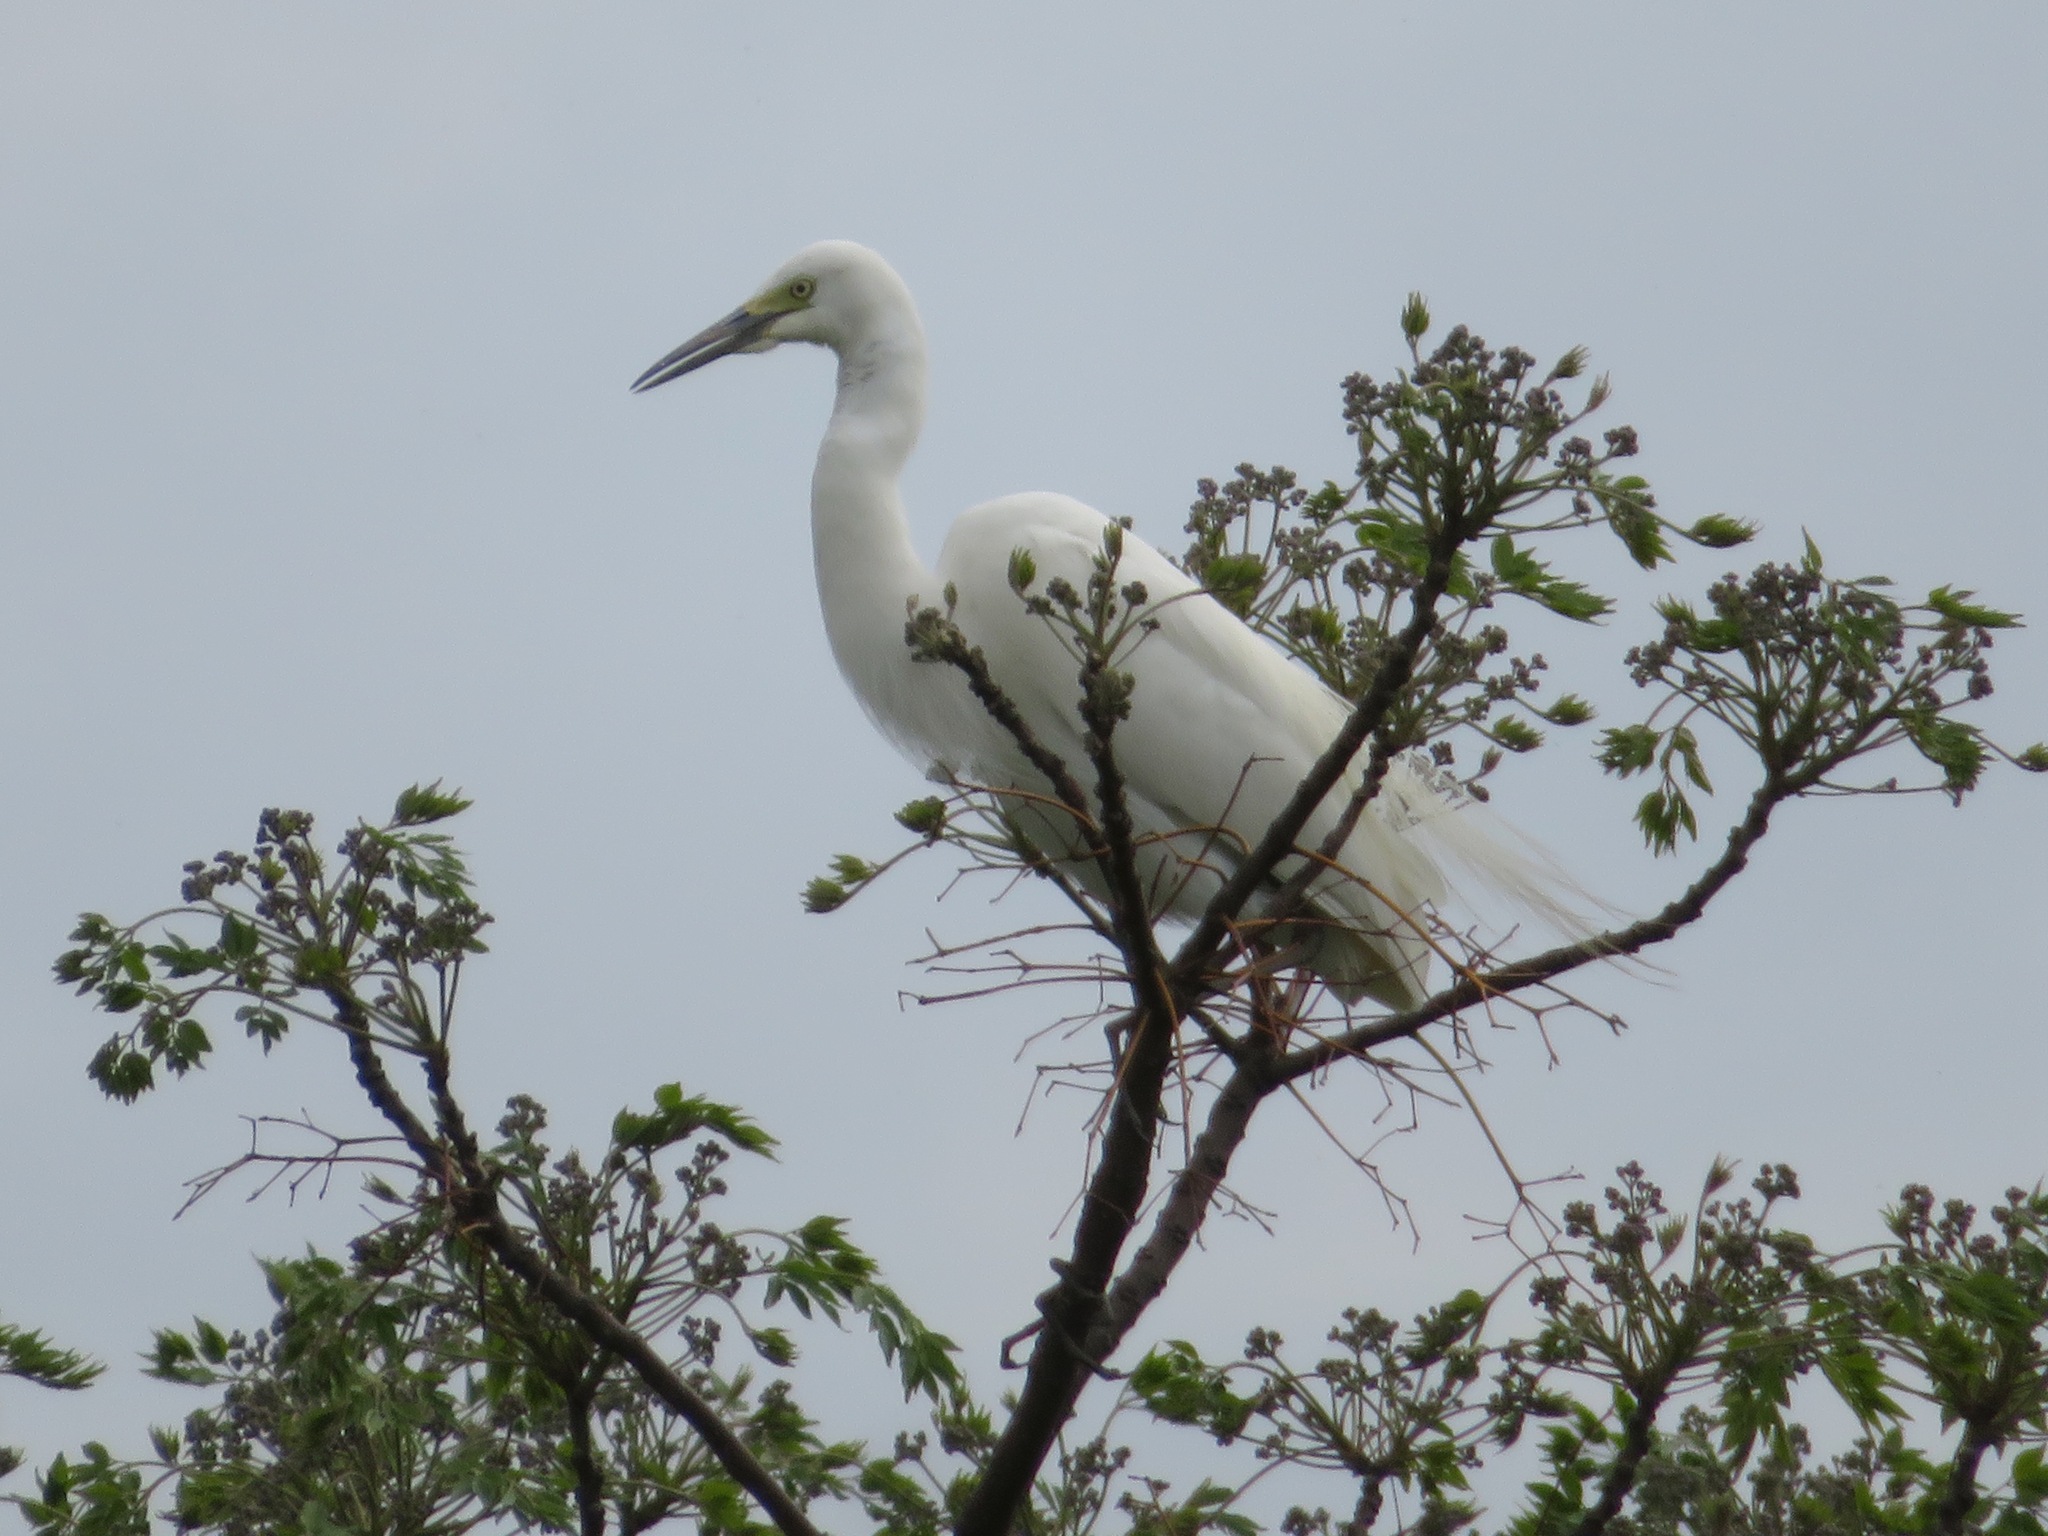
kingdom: Animalia
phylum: Chordata
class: Aves
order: Pelecaniformes
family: Ardeidae
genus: Egretta
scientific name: Egretta intermedia
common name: Intermediate egret
